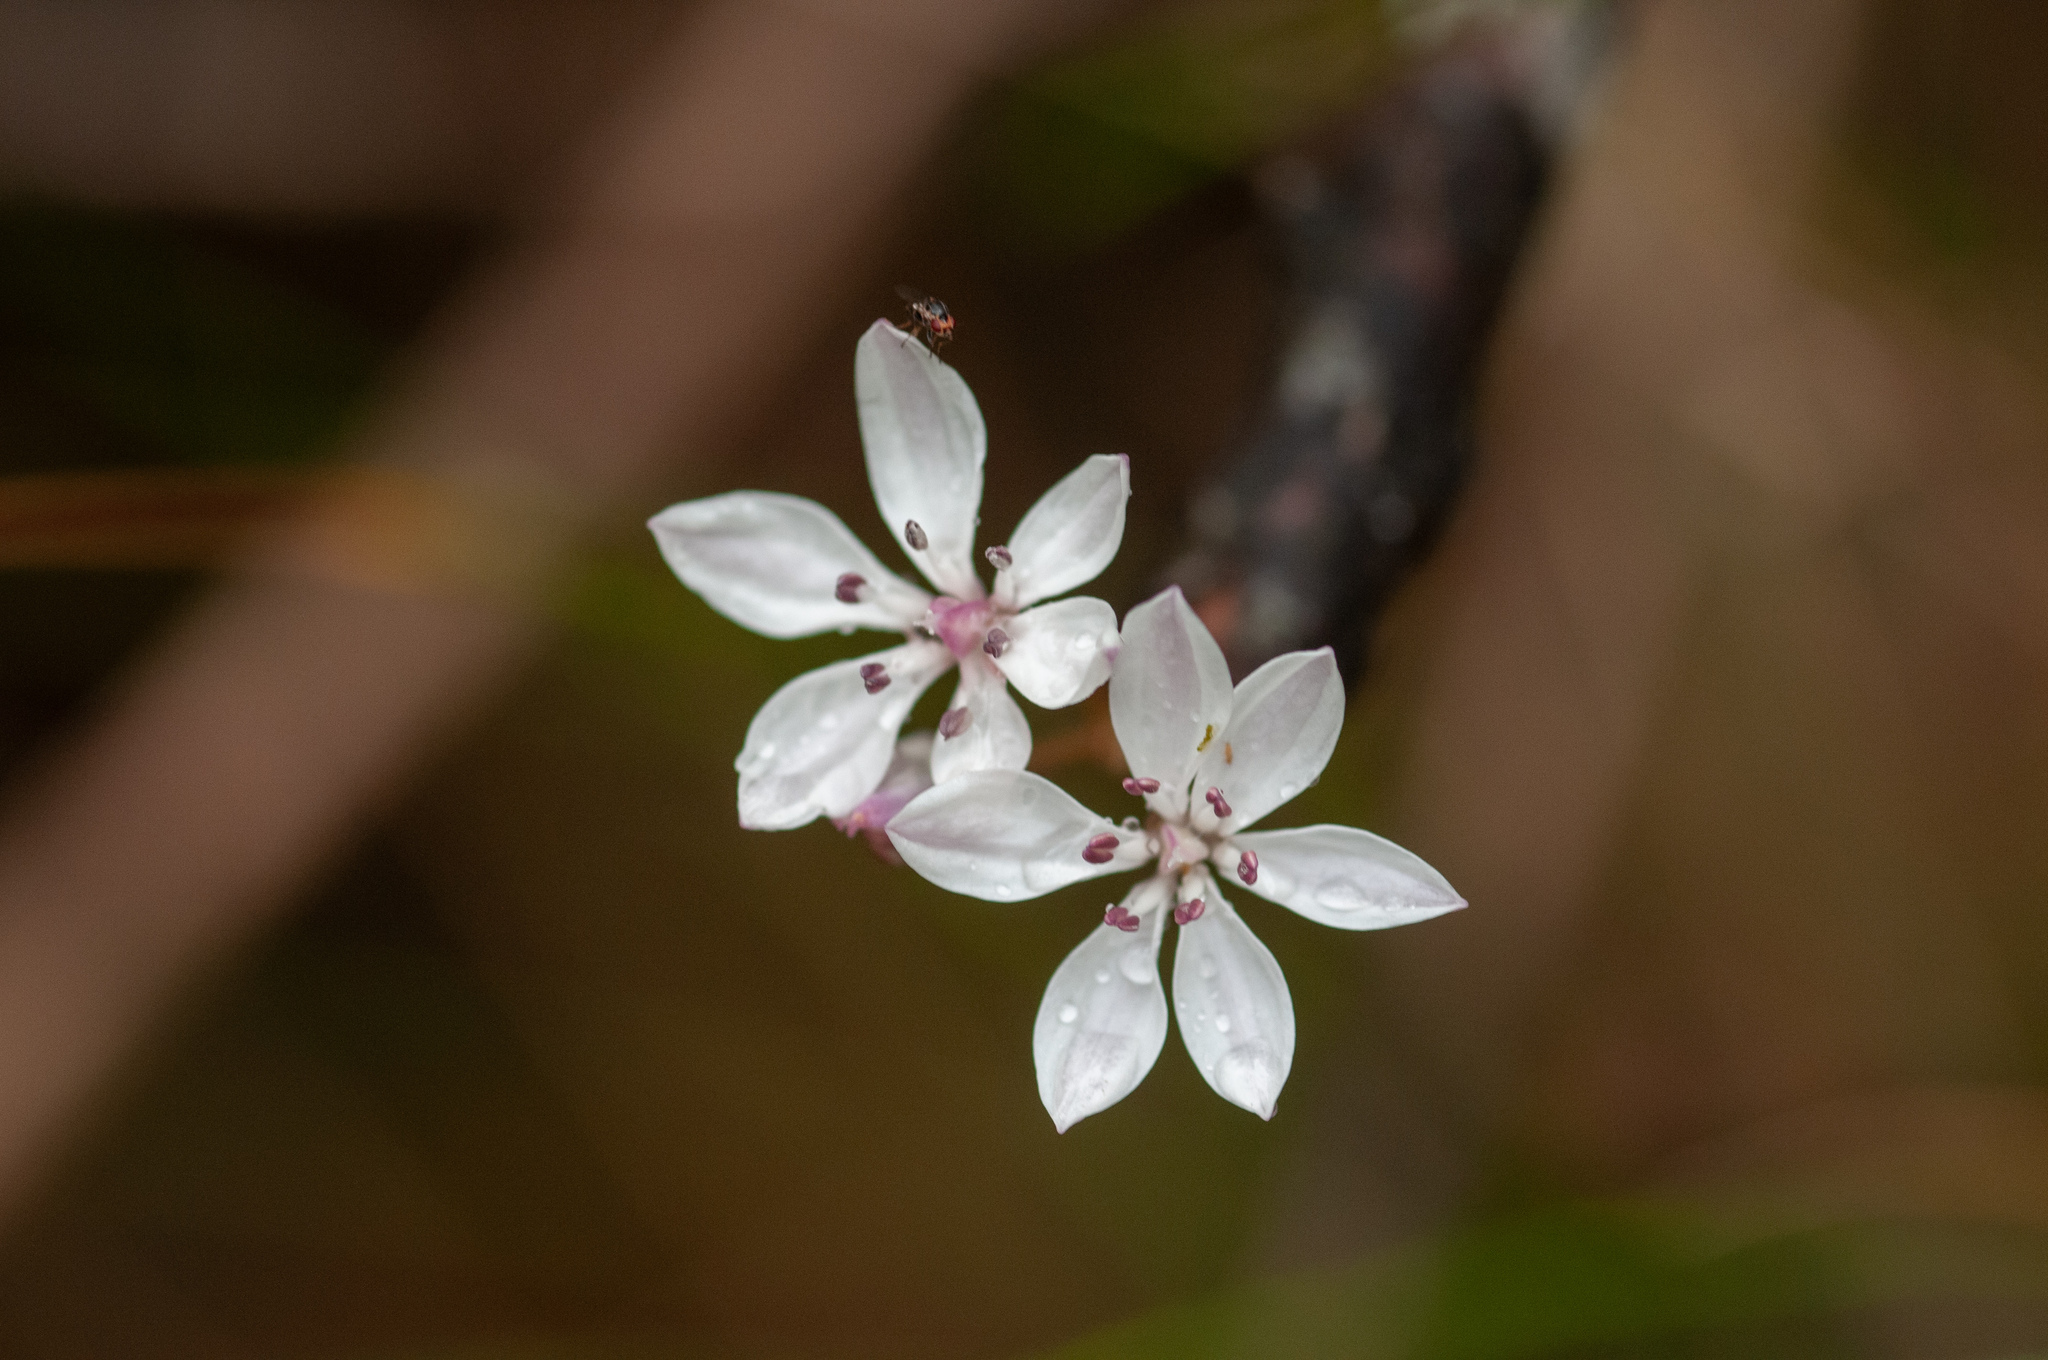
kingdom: Plantae
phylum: Tracheophyta
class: Liliopsida
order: Liliales
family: Colchicaceae
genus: Burchardia
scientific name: Burchardia umbellata
